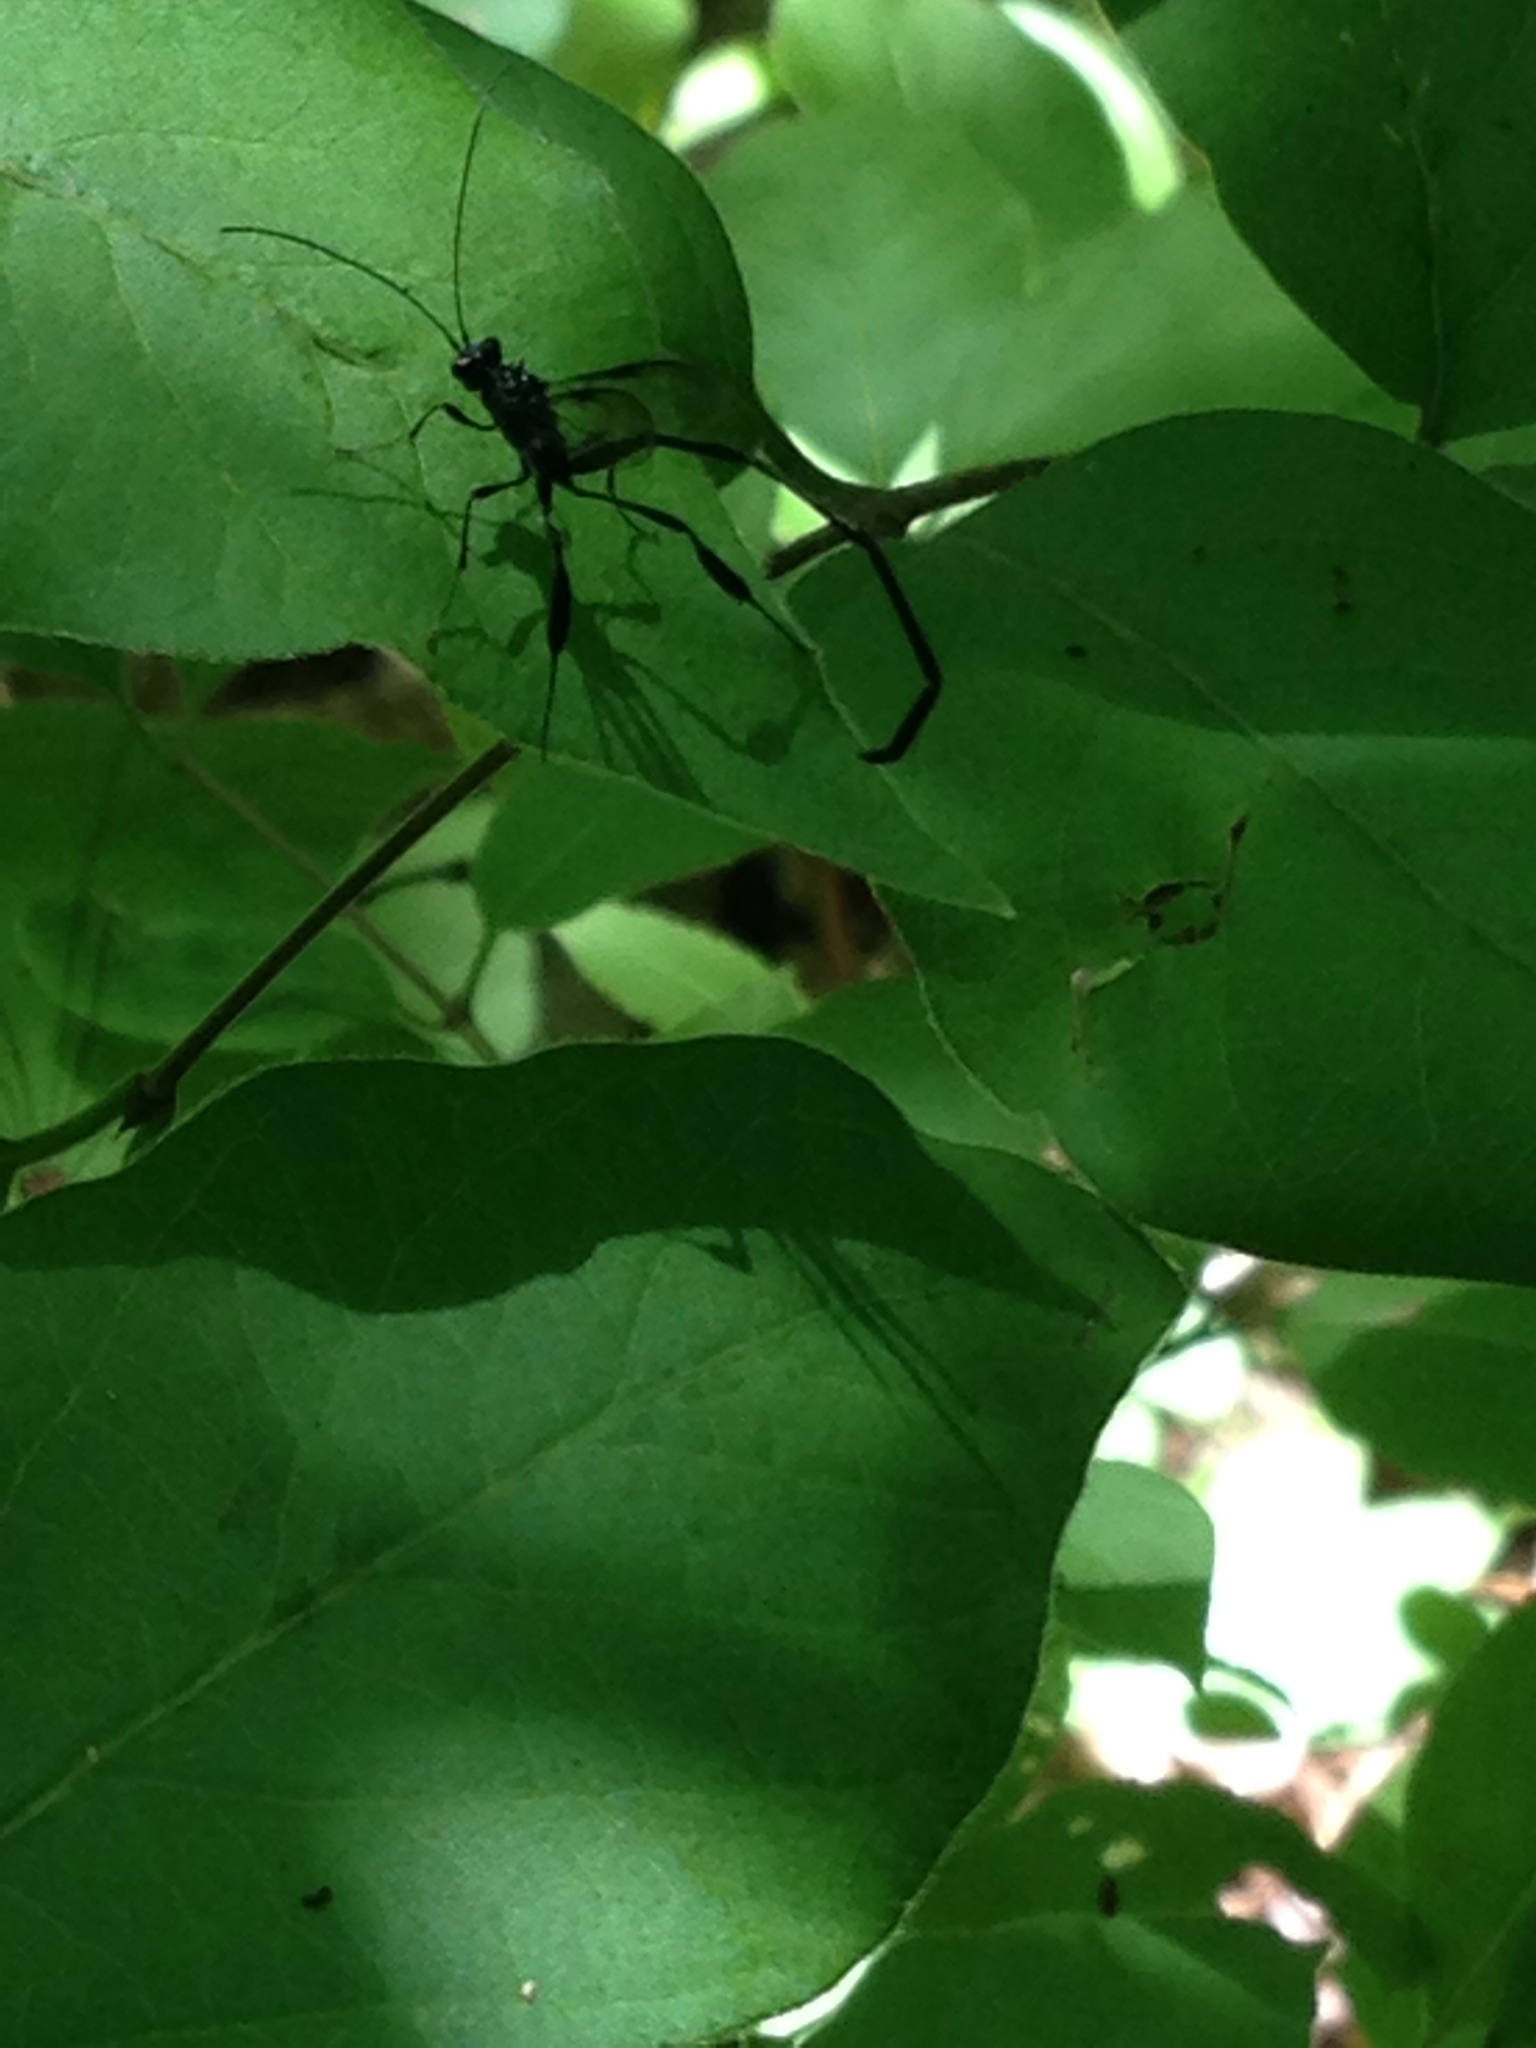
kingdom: Animalia
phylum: Arthropoda
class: Insecta
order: Hymenoptera
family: Pelecinidae
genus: Pelecinus
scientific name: Pelecinus polyturator
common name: American pelecinid wasp
